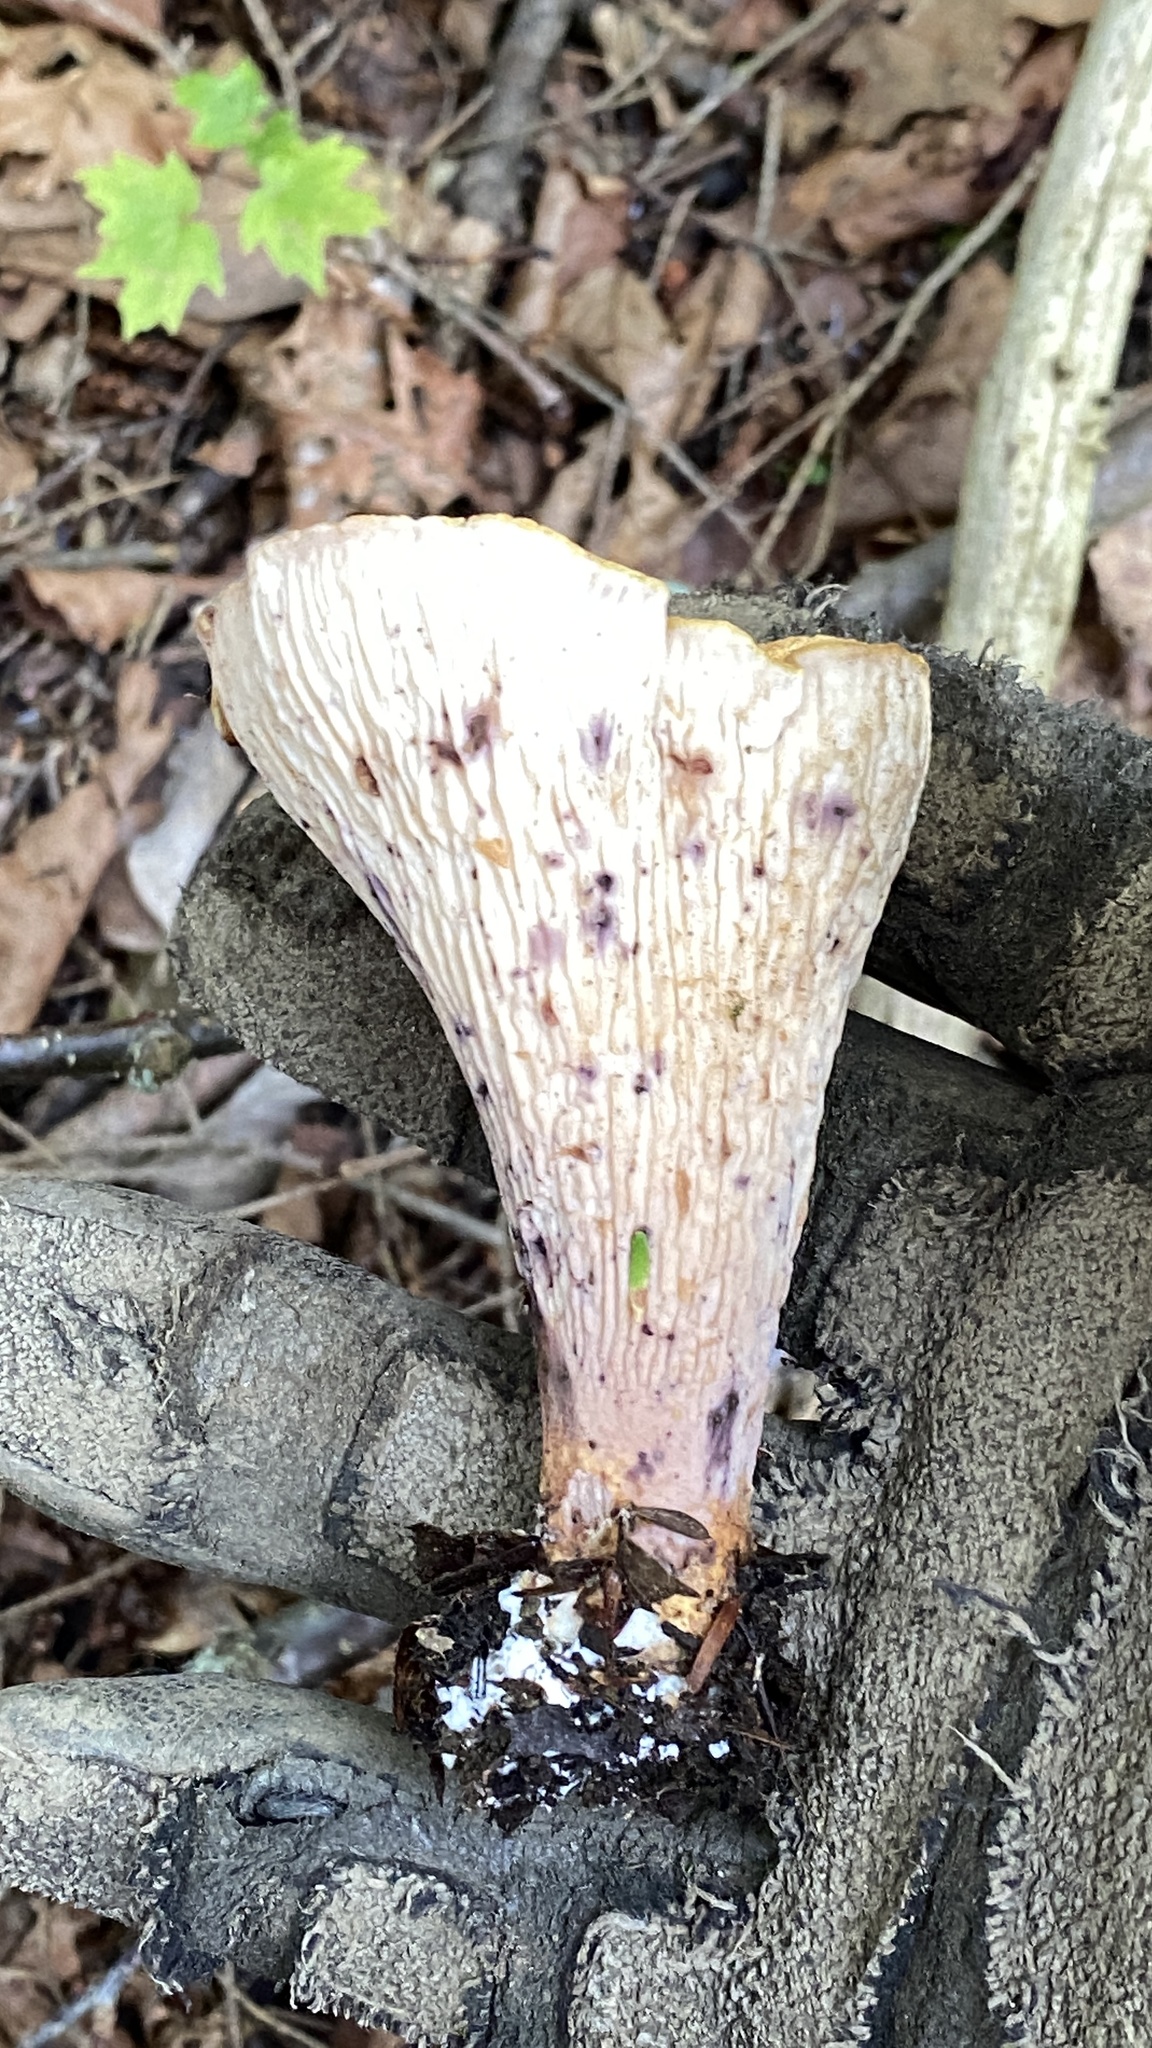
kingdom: Fungi
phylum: Basidiomycota
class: Agaricomycetes
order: Gomphales
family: Gomphaceae
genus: Turbinellus
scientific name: Turbinellus floccosus
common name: Scaly chanterelle
